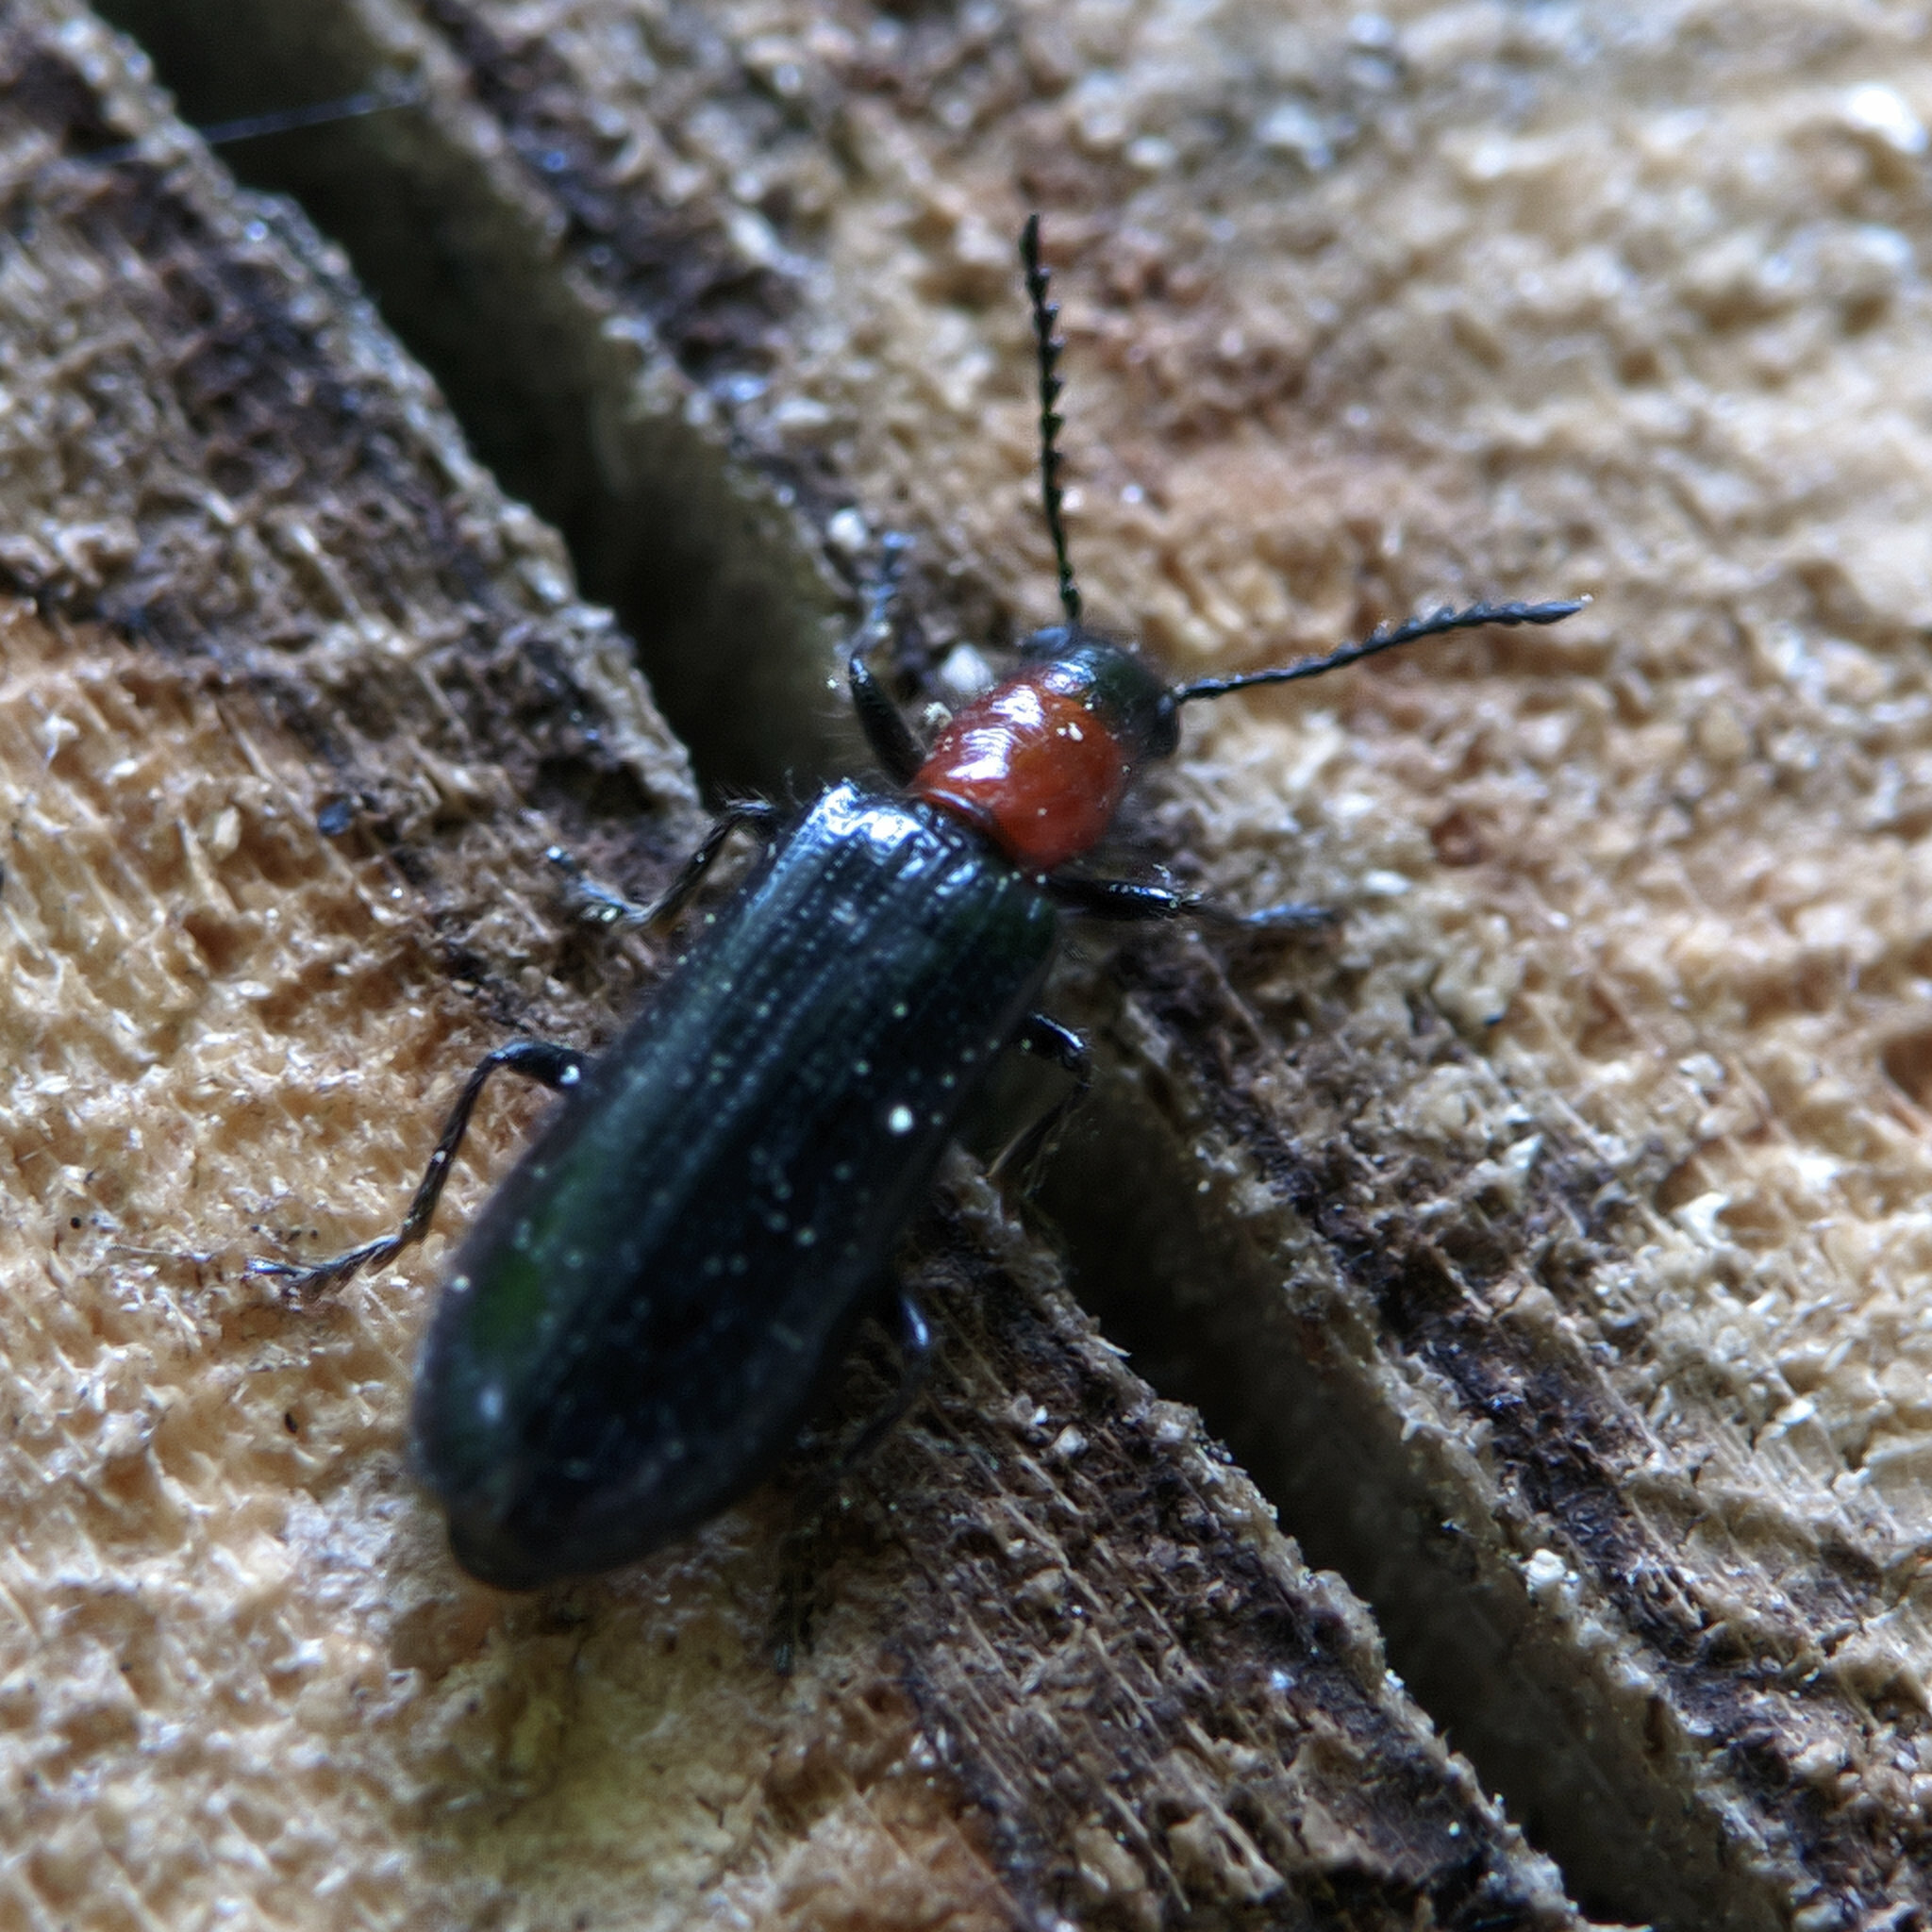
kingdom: Animalia
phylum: Arthropoda
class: Insecta
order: Coleoptera
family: Cleridae
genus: Tillus
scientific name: Tillus elongatus
